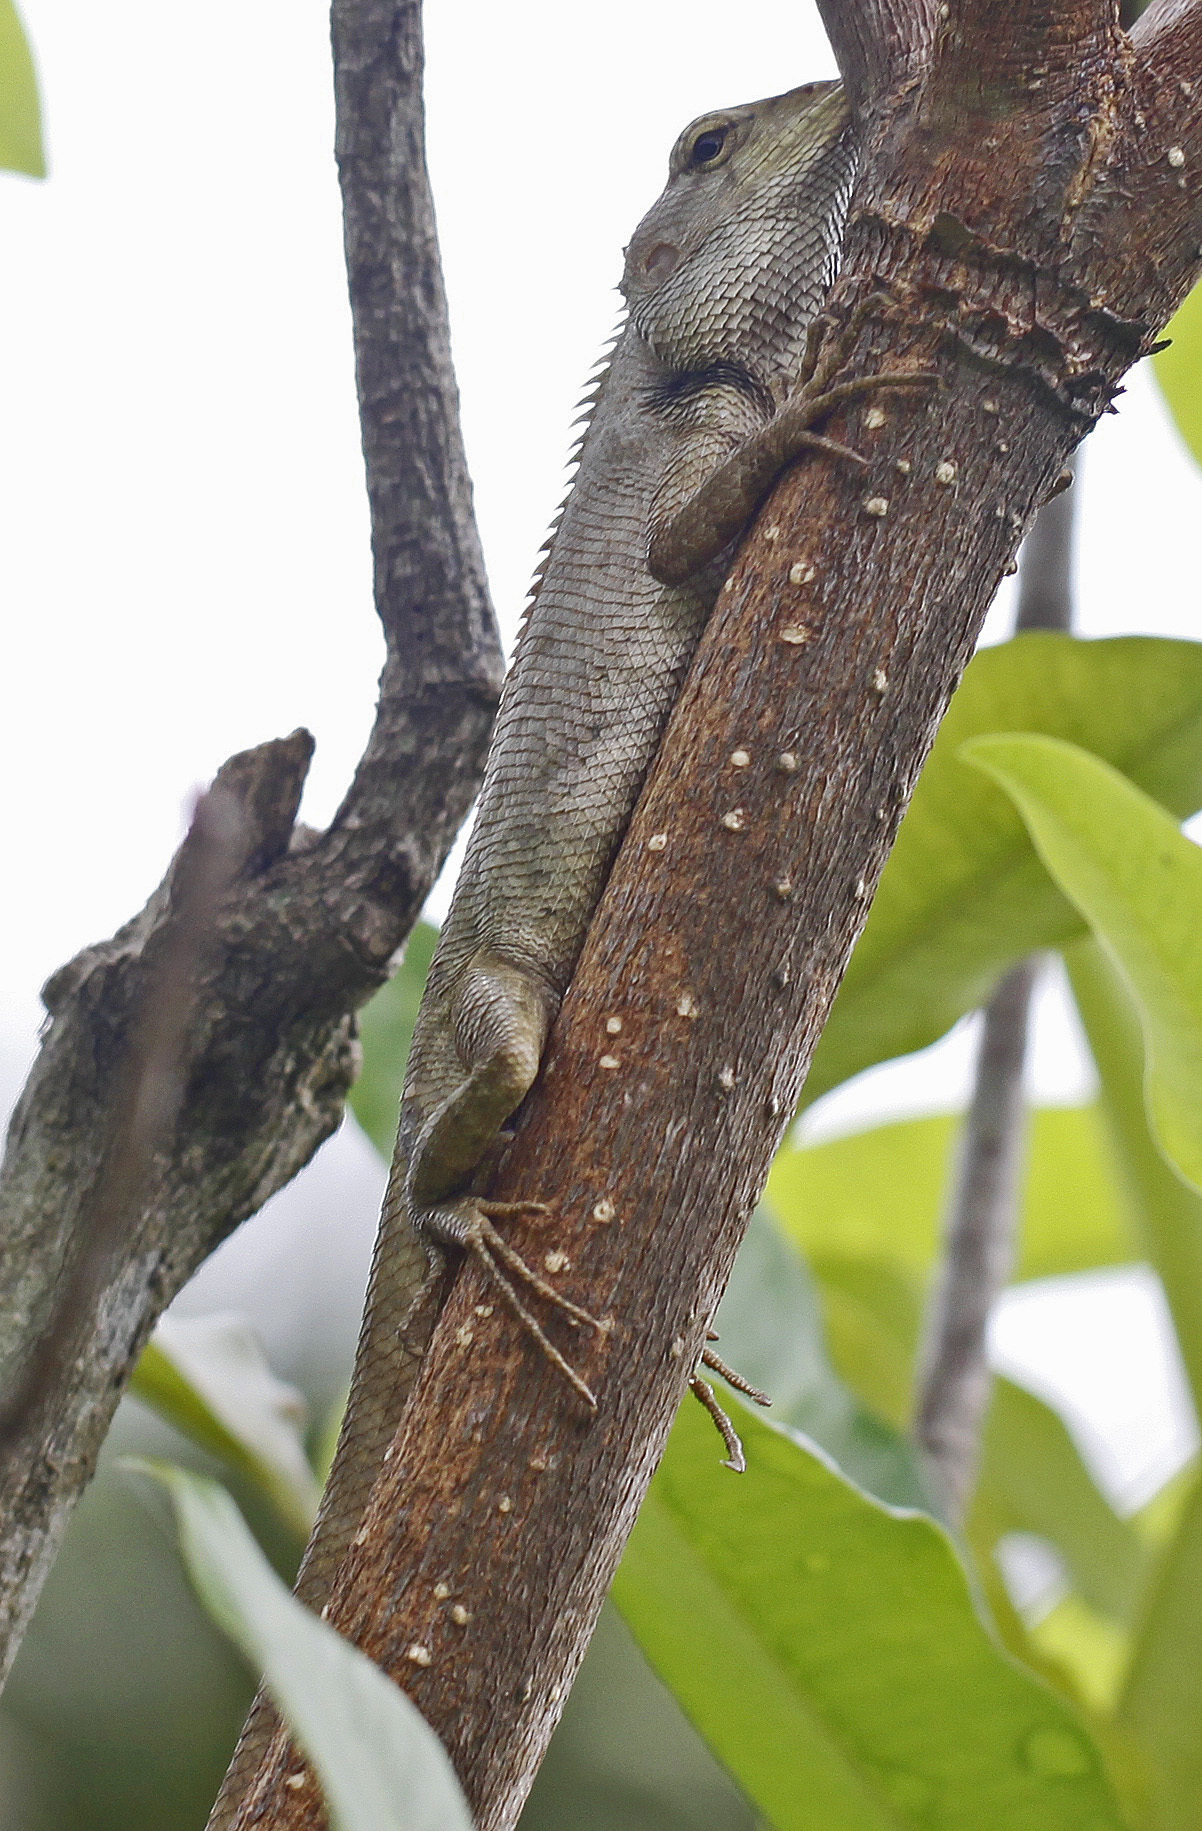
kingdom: Animalia
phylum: Chordata
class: Squamata
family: Agamidae
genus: Calotes
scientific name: Calotes versicolor
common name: Oriental garden lizard
